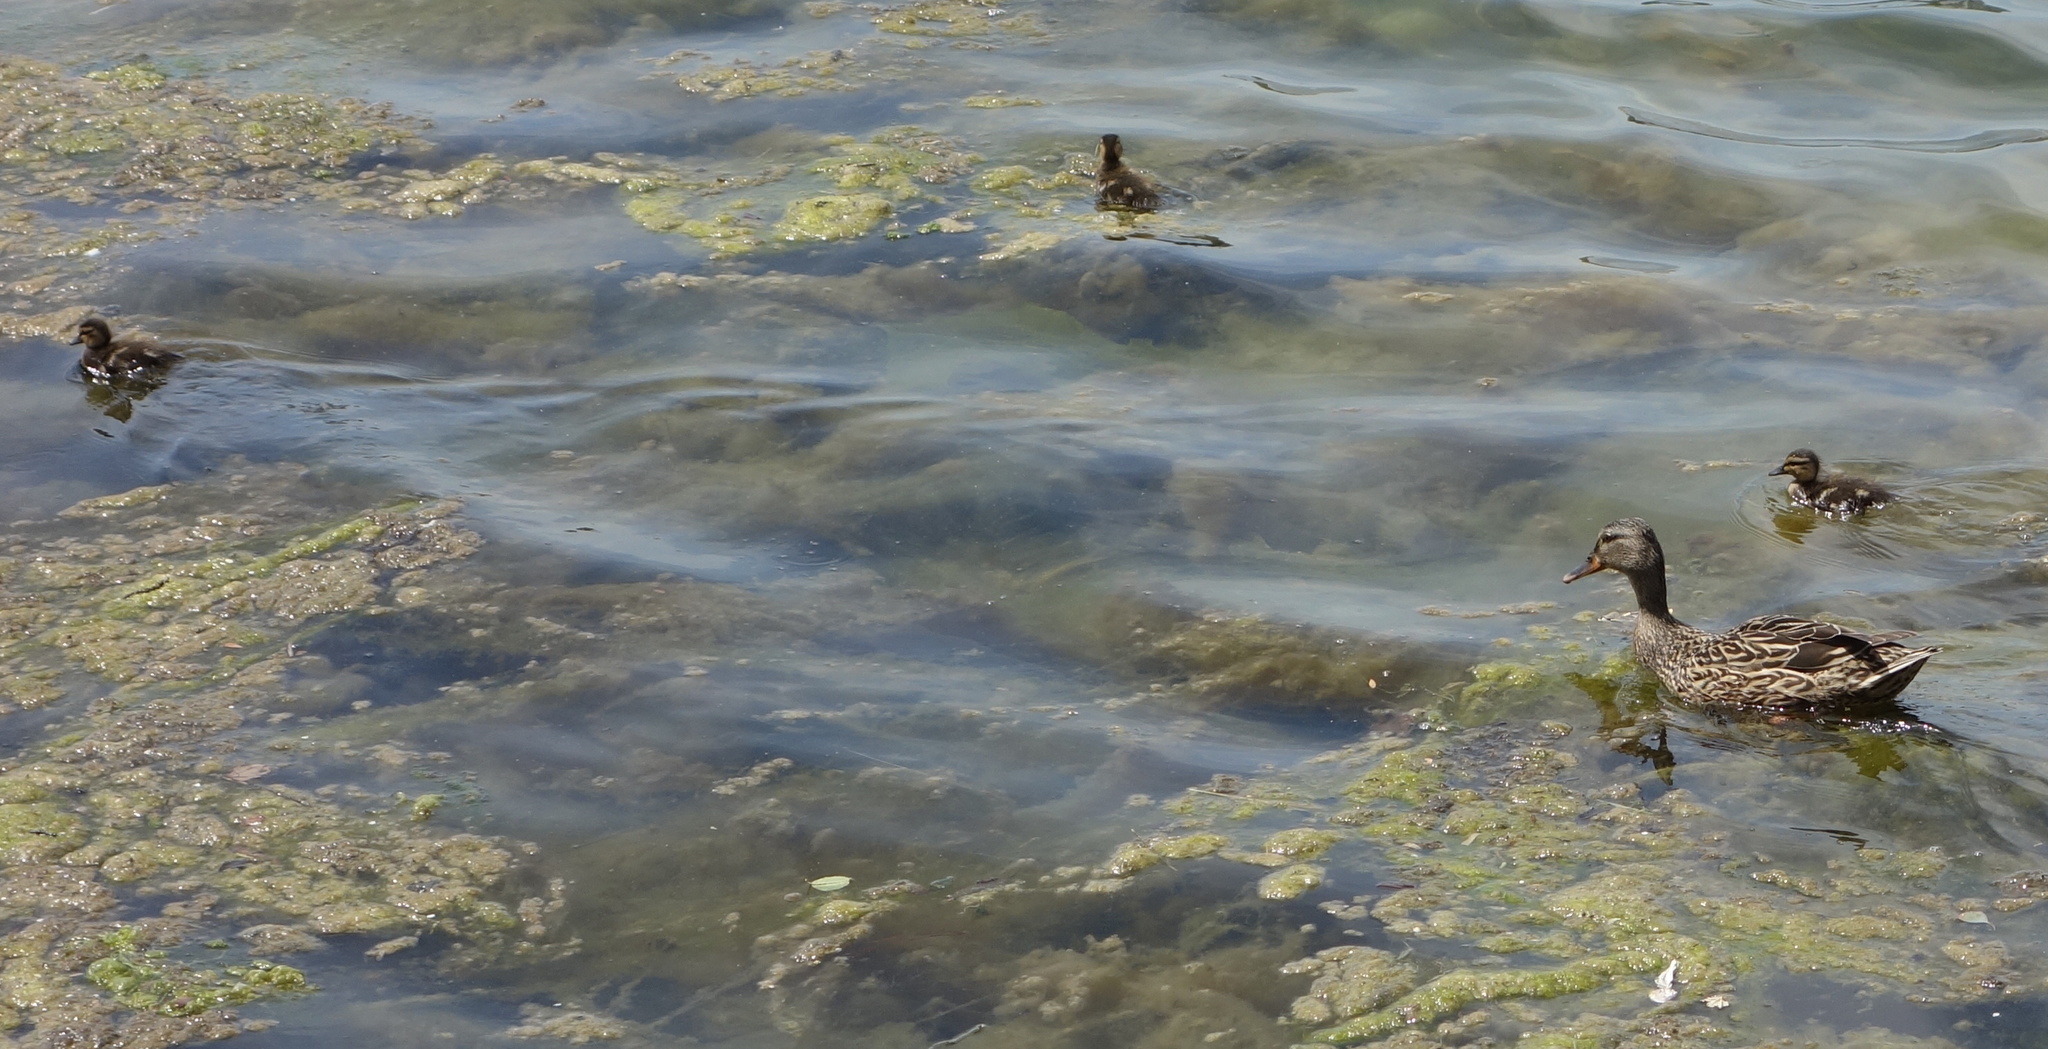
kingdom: Animalia
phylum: Chordata
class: Aves
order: Anseriformes
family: Anatidae
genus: Anas
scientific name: Anas platyrhynchos
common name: Mallard
